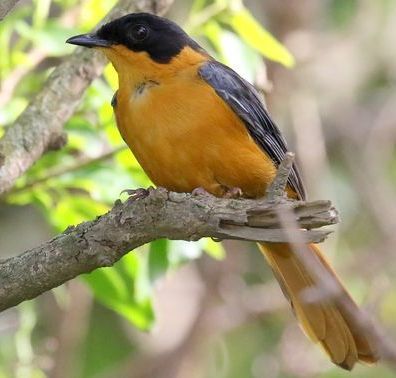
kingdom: Animalia
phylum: Chordata
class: Aves
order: Passeriformes
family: Muscicapidae
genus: Cossypha
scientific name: Cossypha dichroa
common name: Chorister robin-chat
